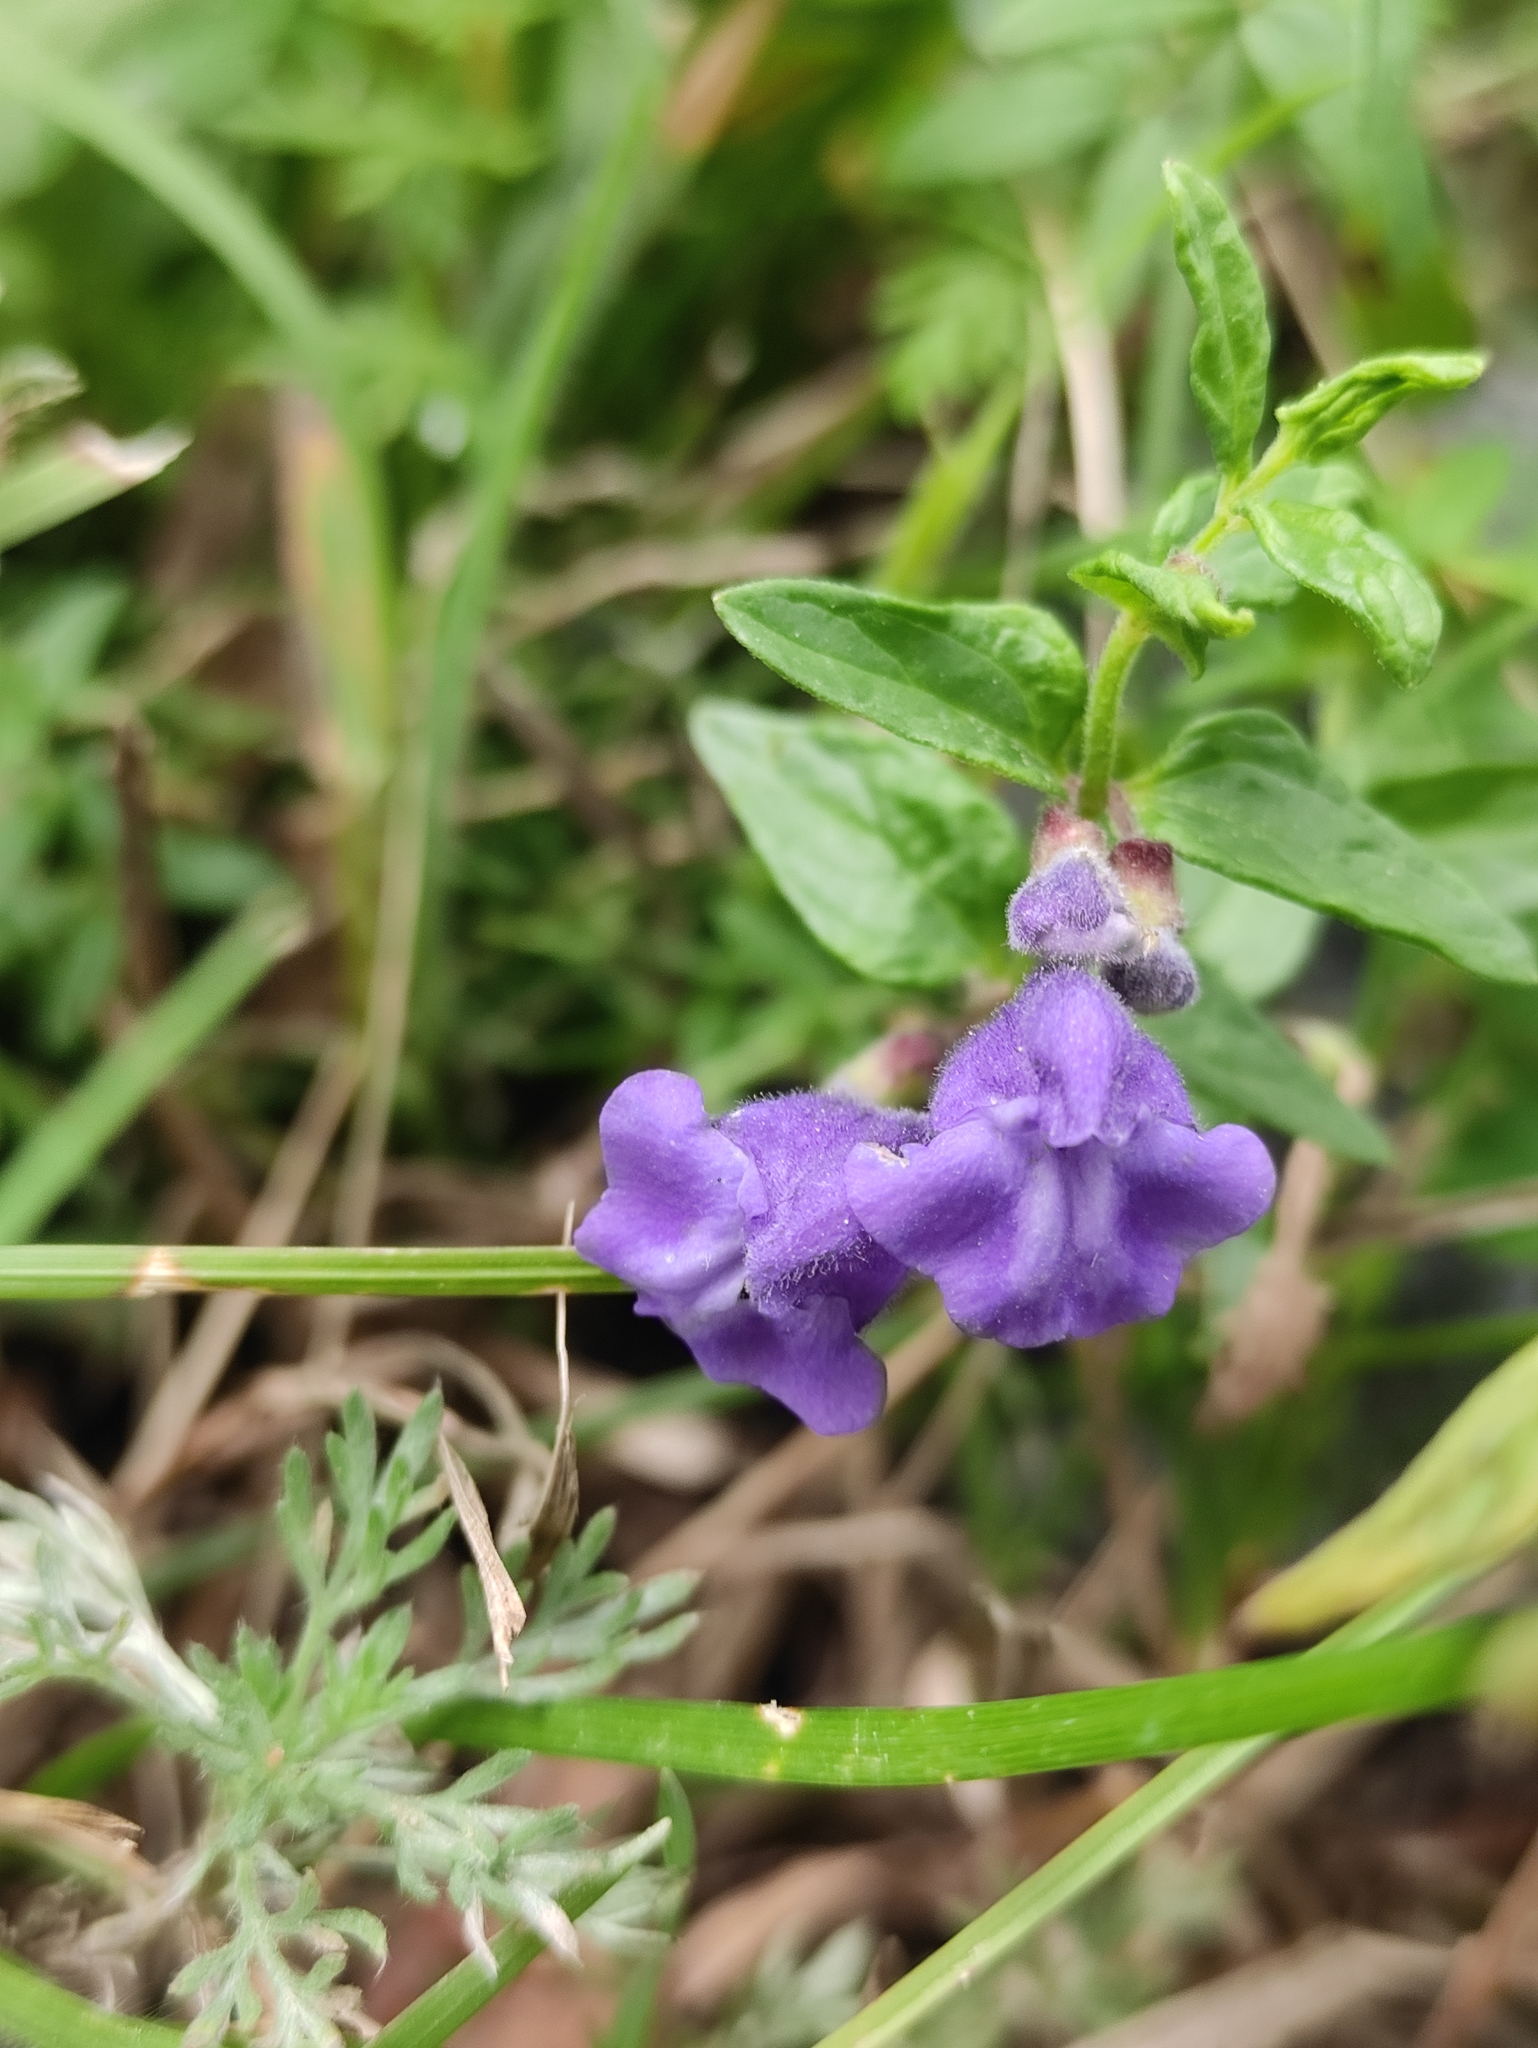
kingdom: Plantae
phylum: Tracheophyta
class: Magnoliopsida
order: Lamiales
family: Lamiaceae
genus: Scutellaria
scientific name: Scutellaria scordiifolia
